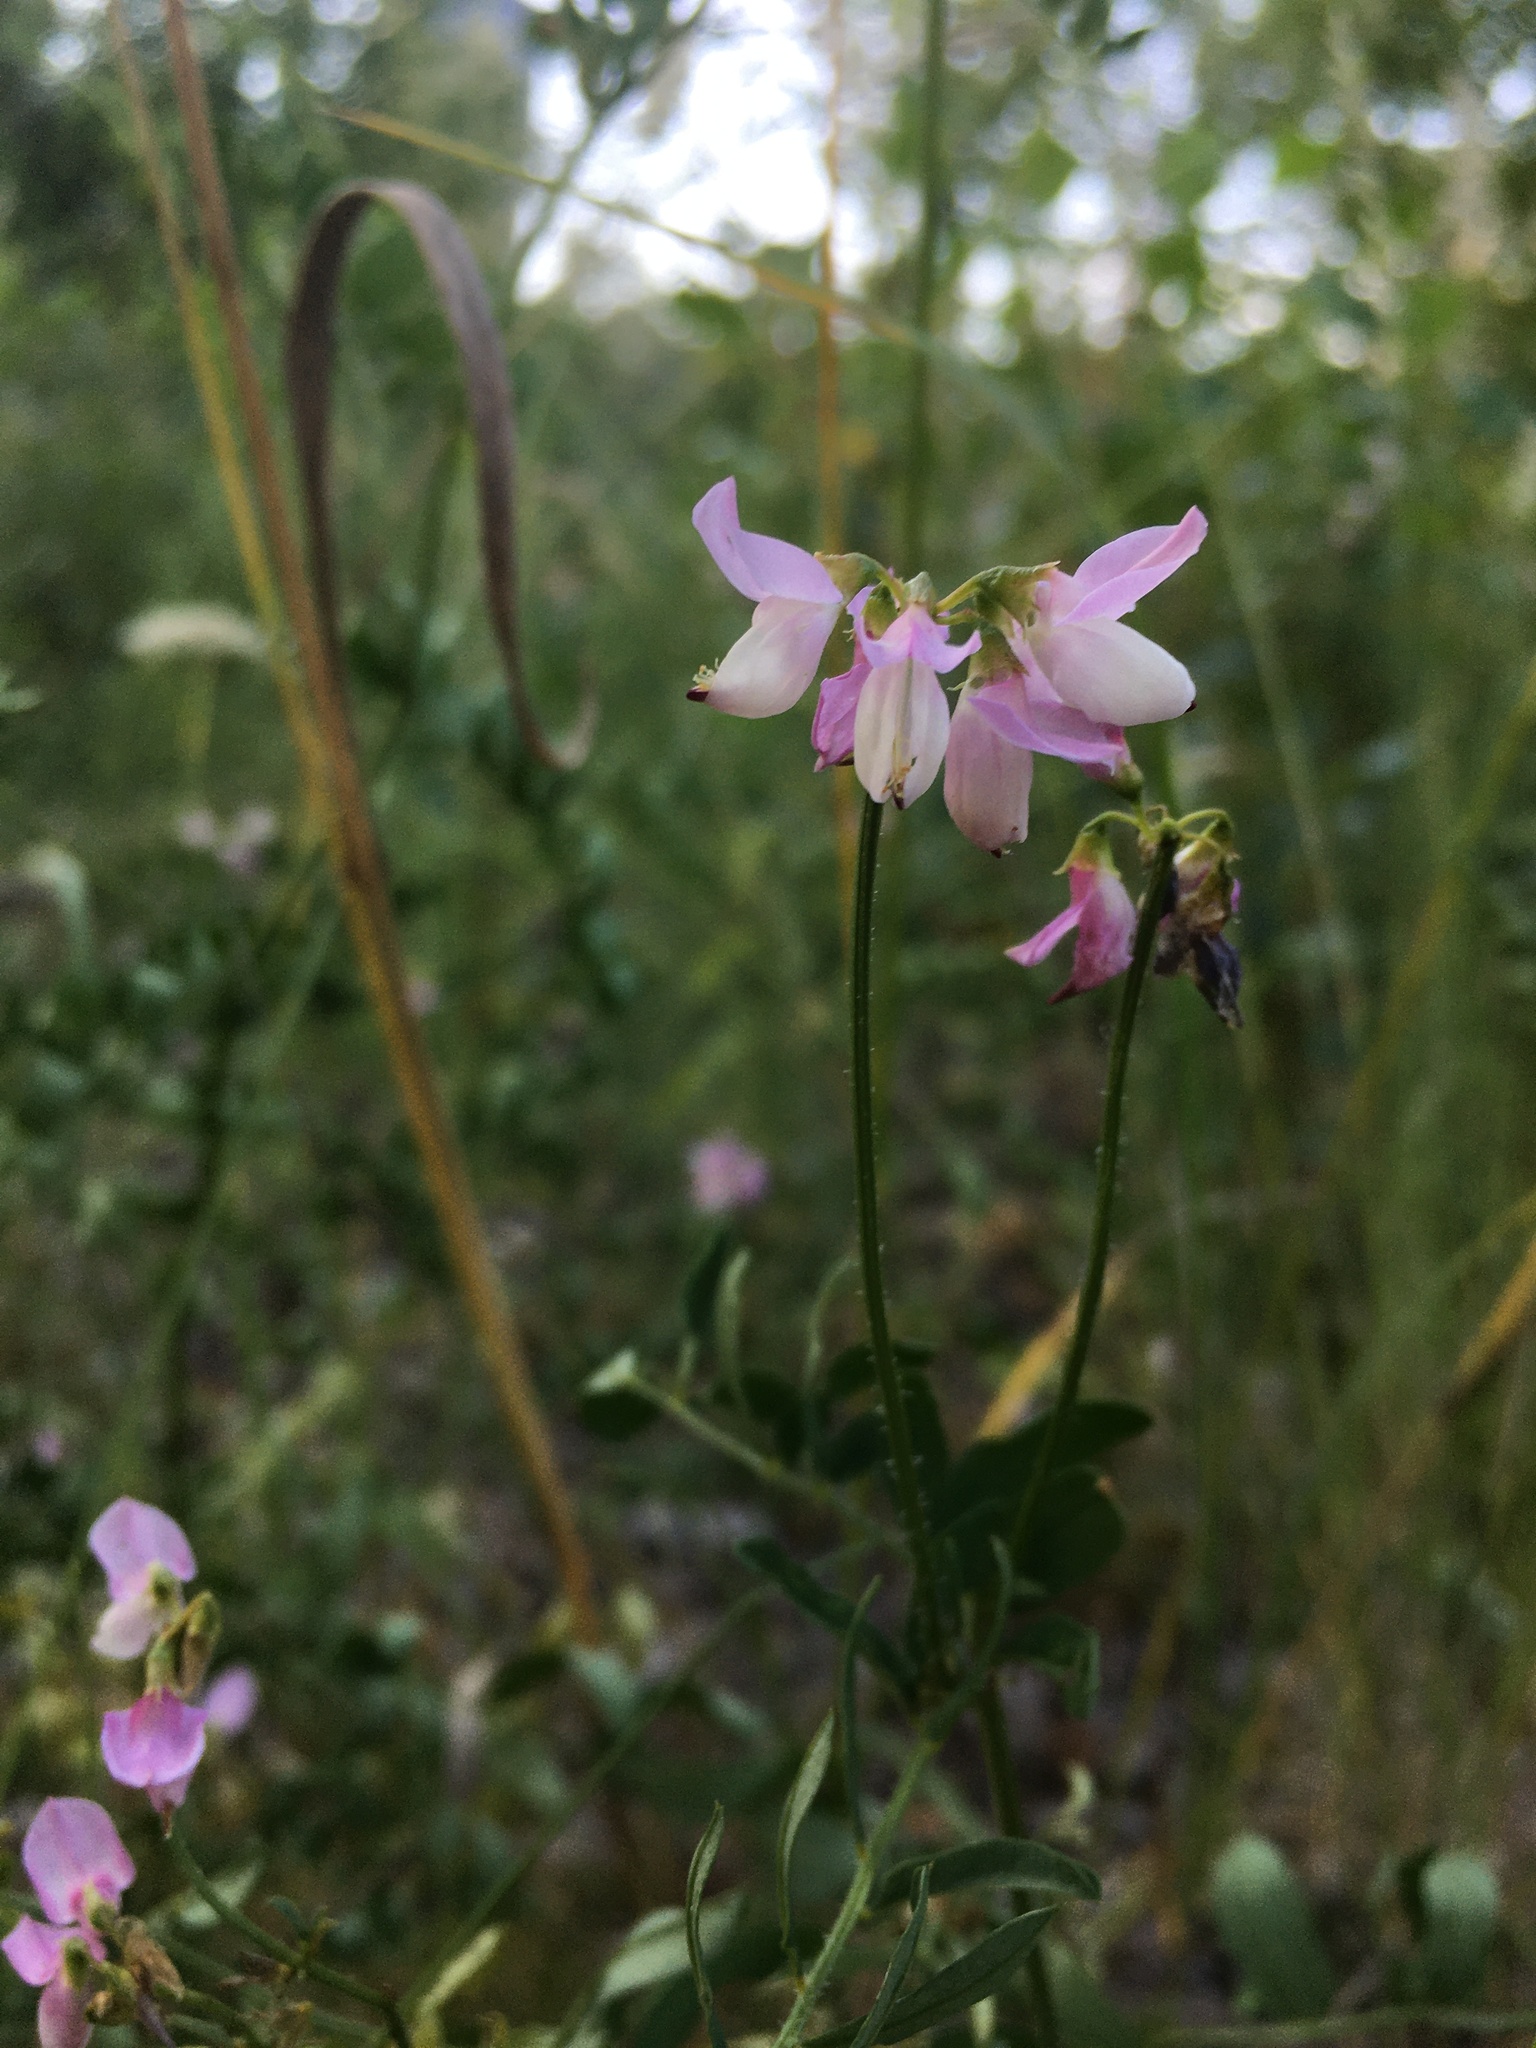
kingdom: Plantae
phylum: Tracheophyta
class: Magnoliopsida
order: Fabales
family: Fabaceae
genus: Coronilla
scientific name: Coronilla varia
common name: Crownvetch
